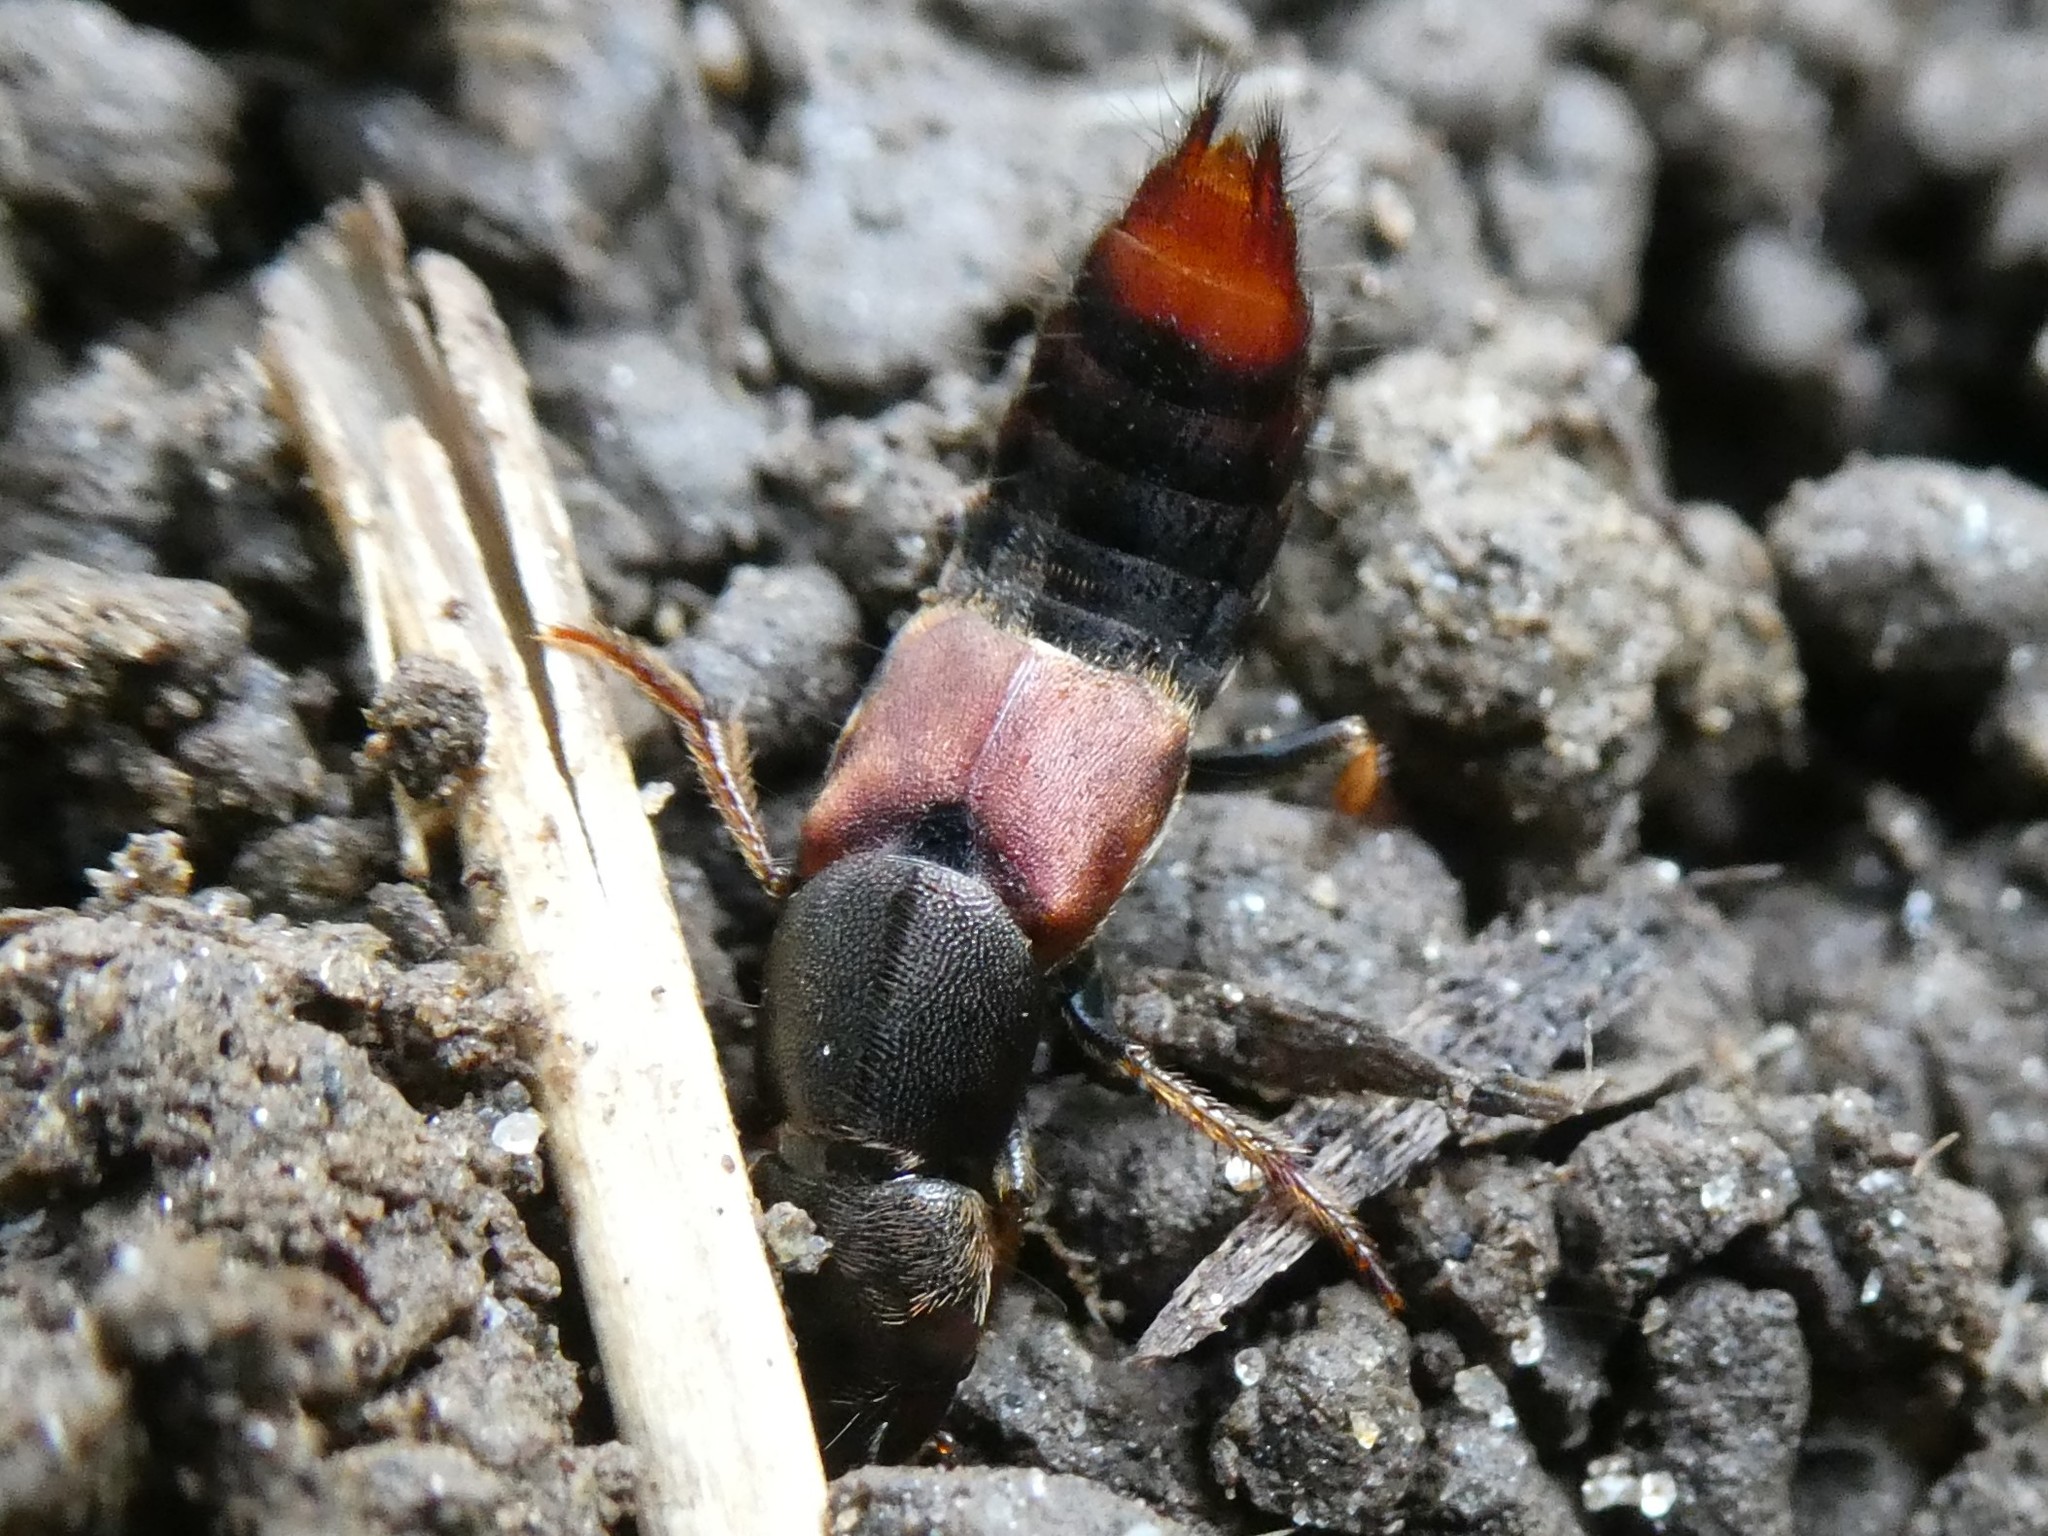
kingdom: Animalia
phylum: Arthropoda
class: Insecta
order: Coleoptera
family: Staphylinidae
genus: Platydracus
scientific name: Platydracus
